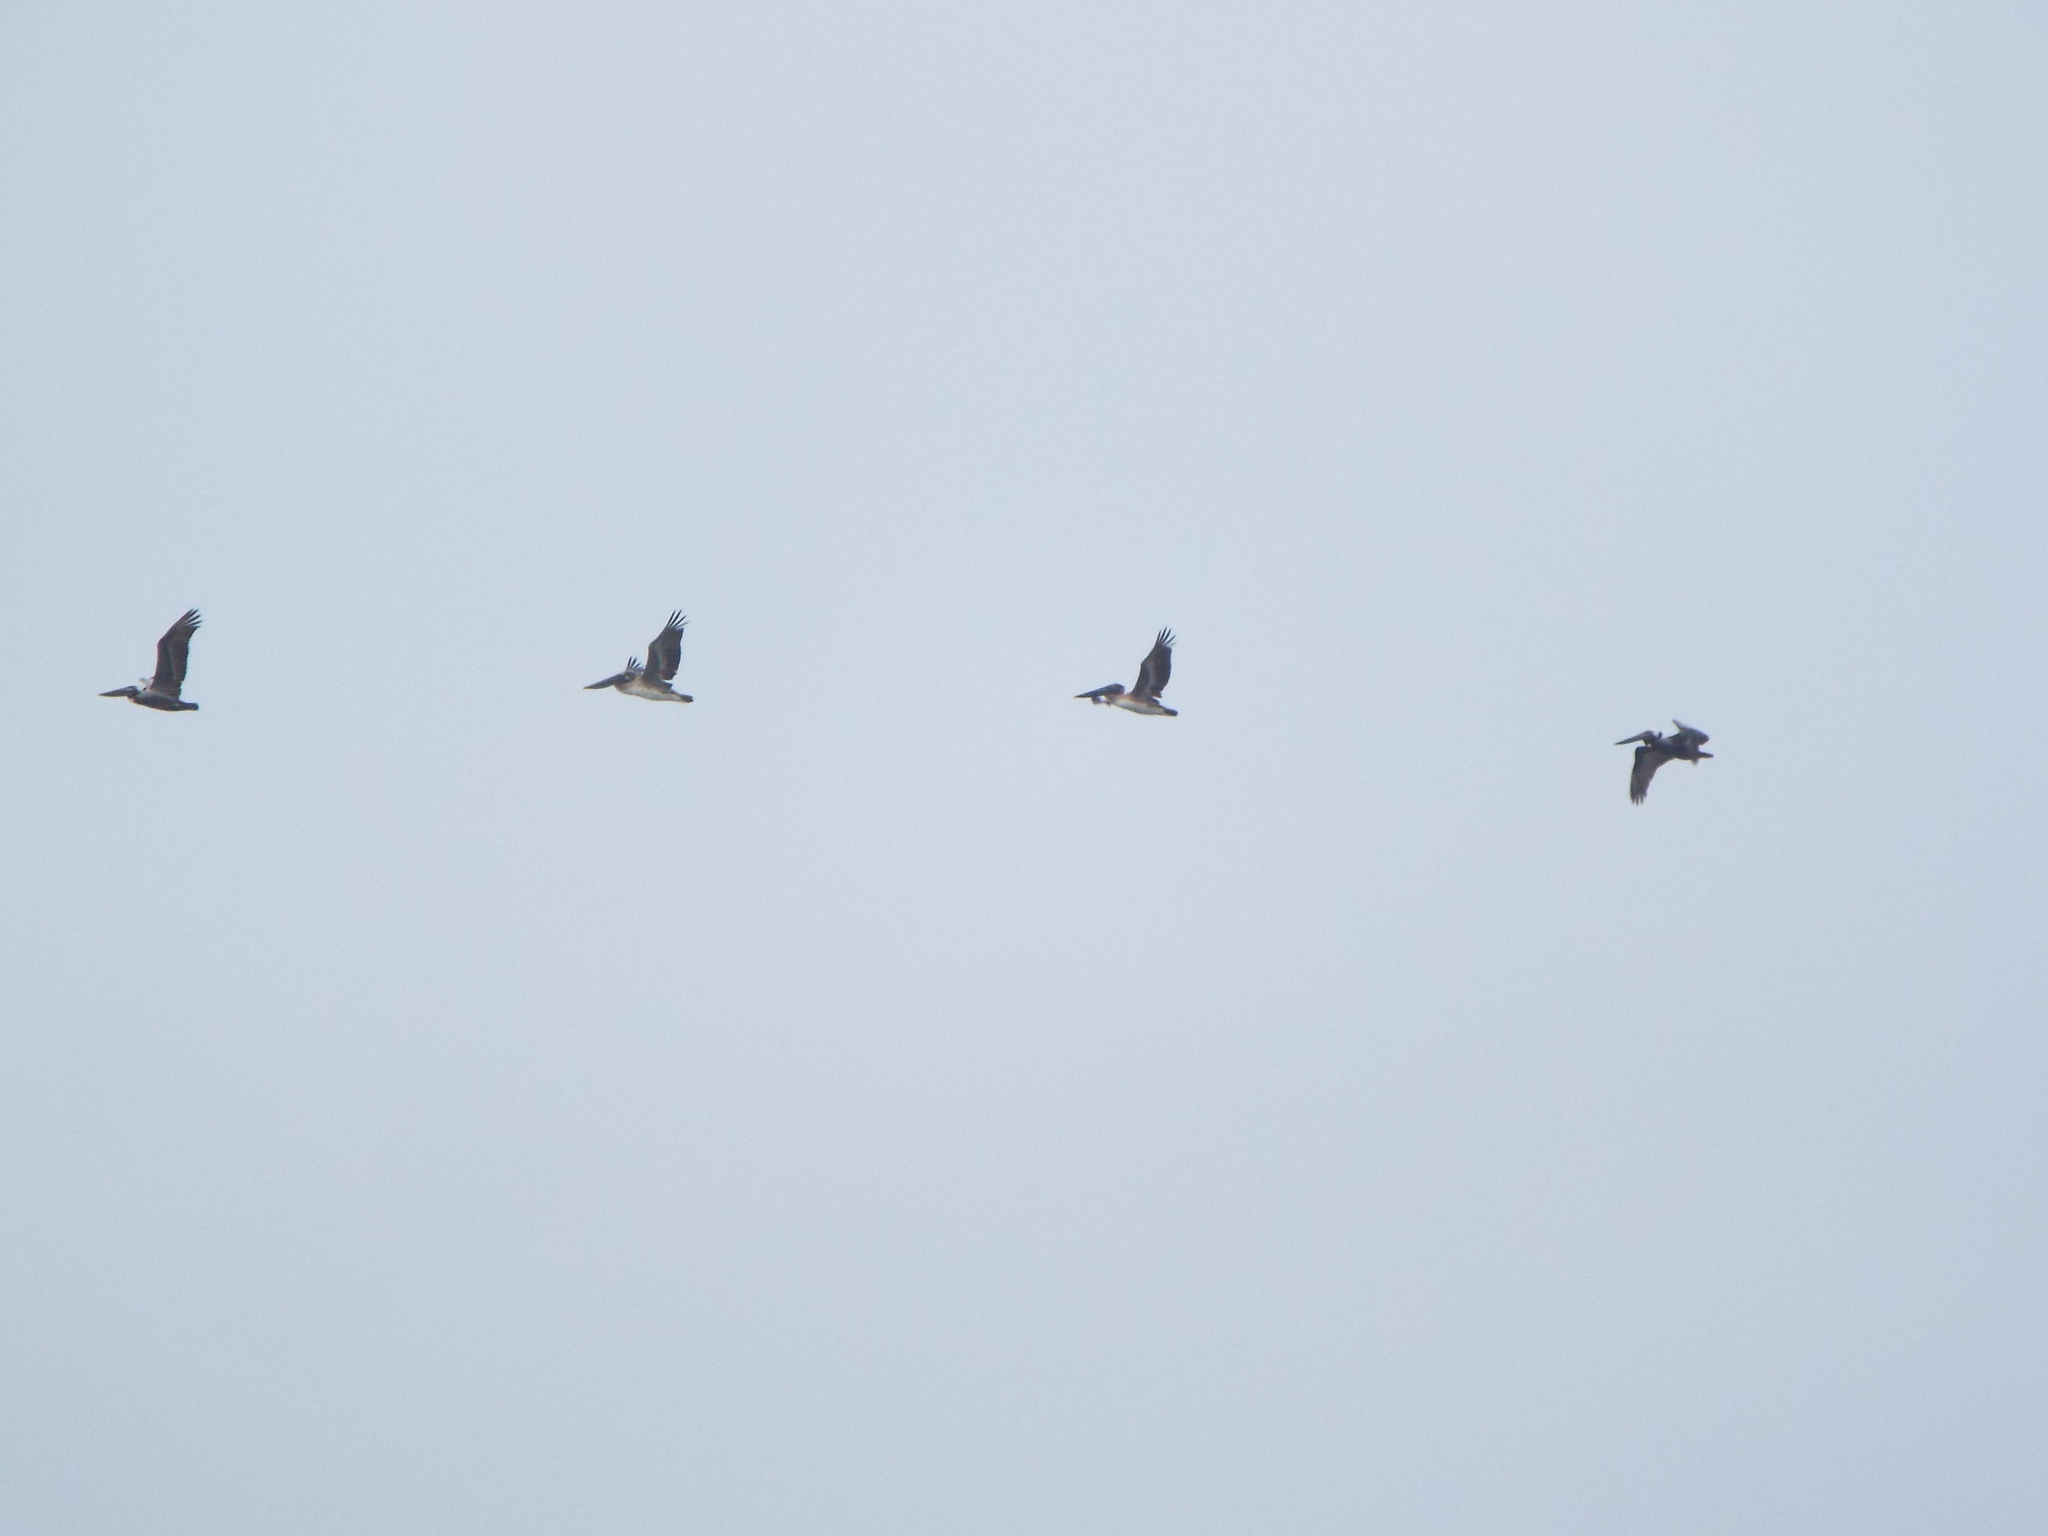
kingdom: Animalia
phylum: Chordata
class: Aves
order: Pelecaniformes
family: Pelecanidae
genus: Pelecanus
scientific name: Pelecanus occidentalis
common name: Brown pelican
